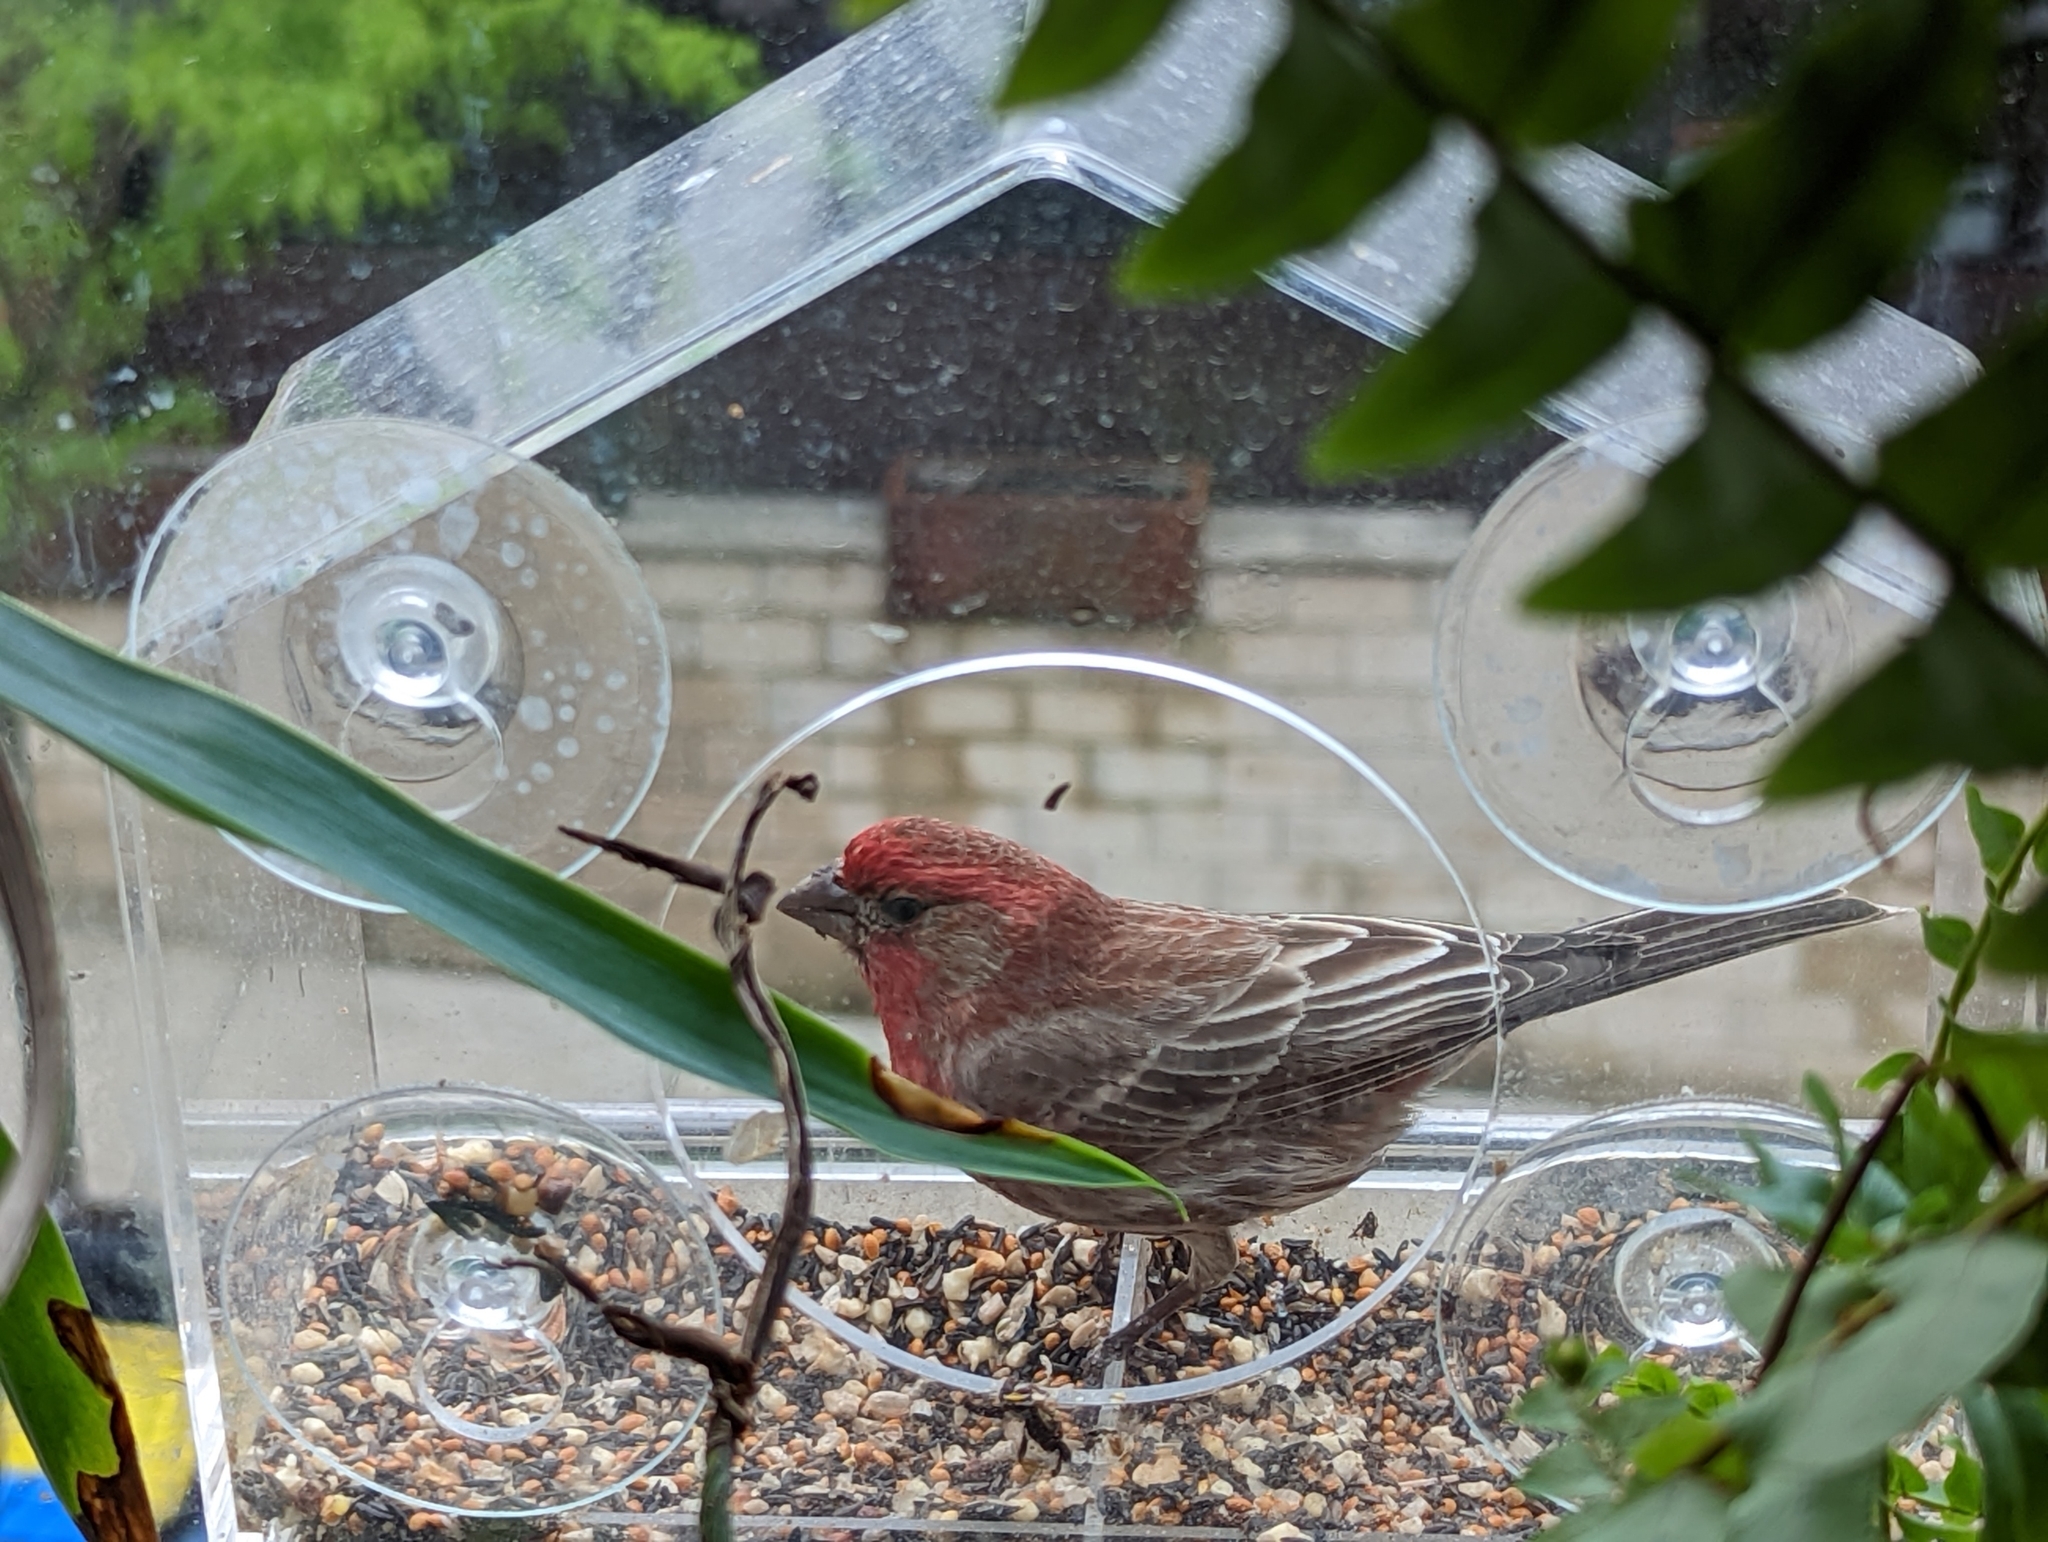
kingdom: Animalia
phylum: Chordata
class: Aves
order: Passeriformes
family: Fringillidae
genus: Haemorhous
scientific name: Haemorhous mexicanus
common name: House finch
